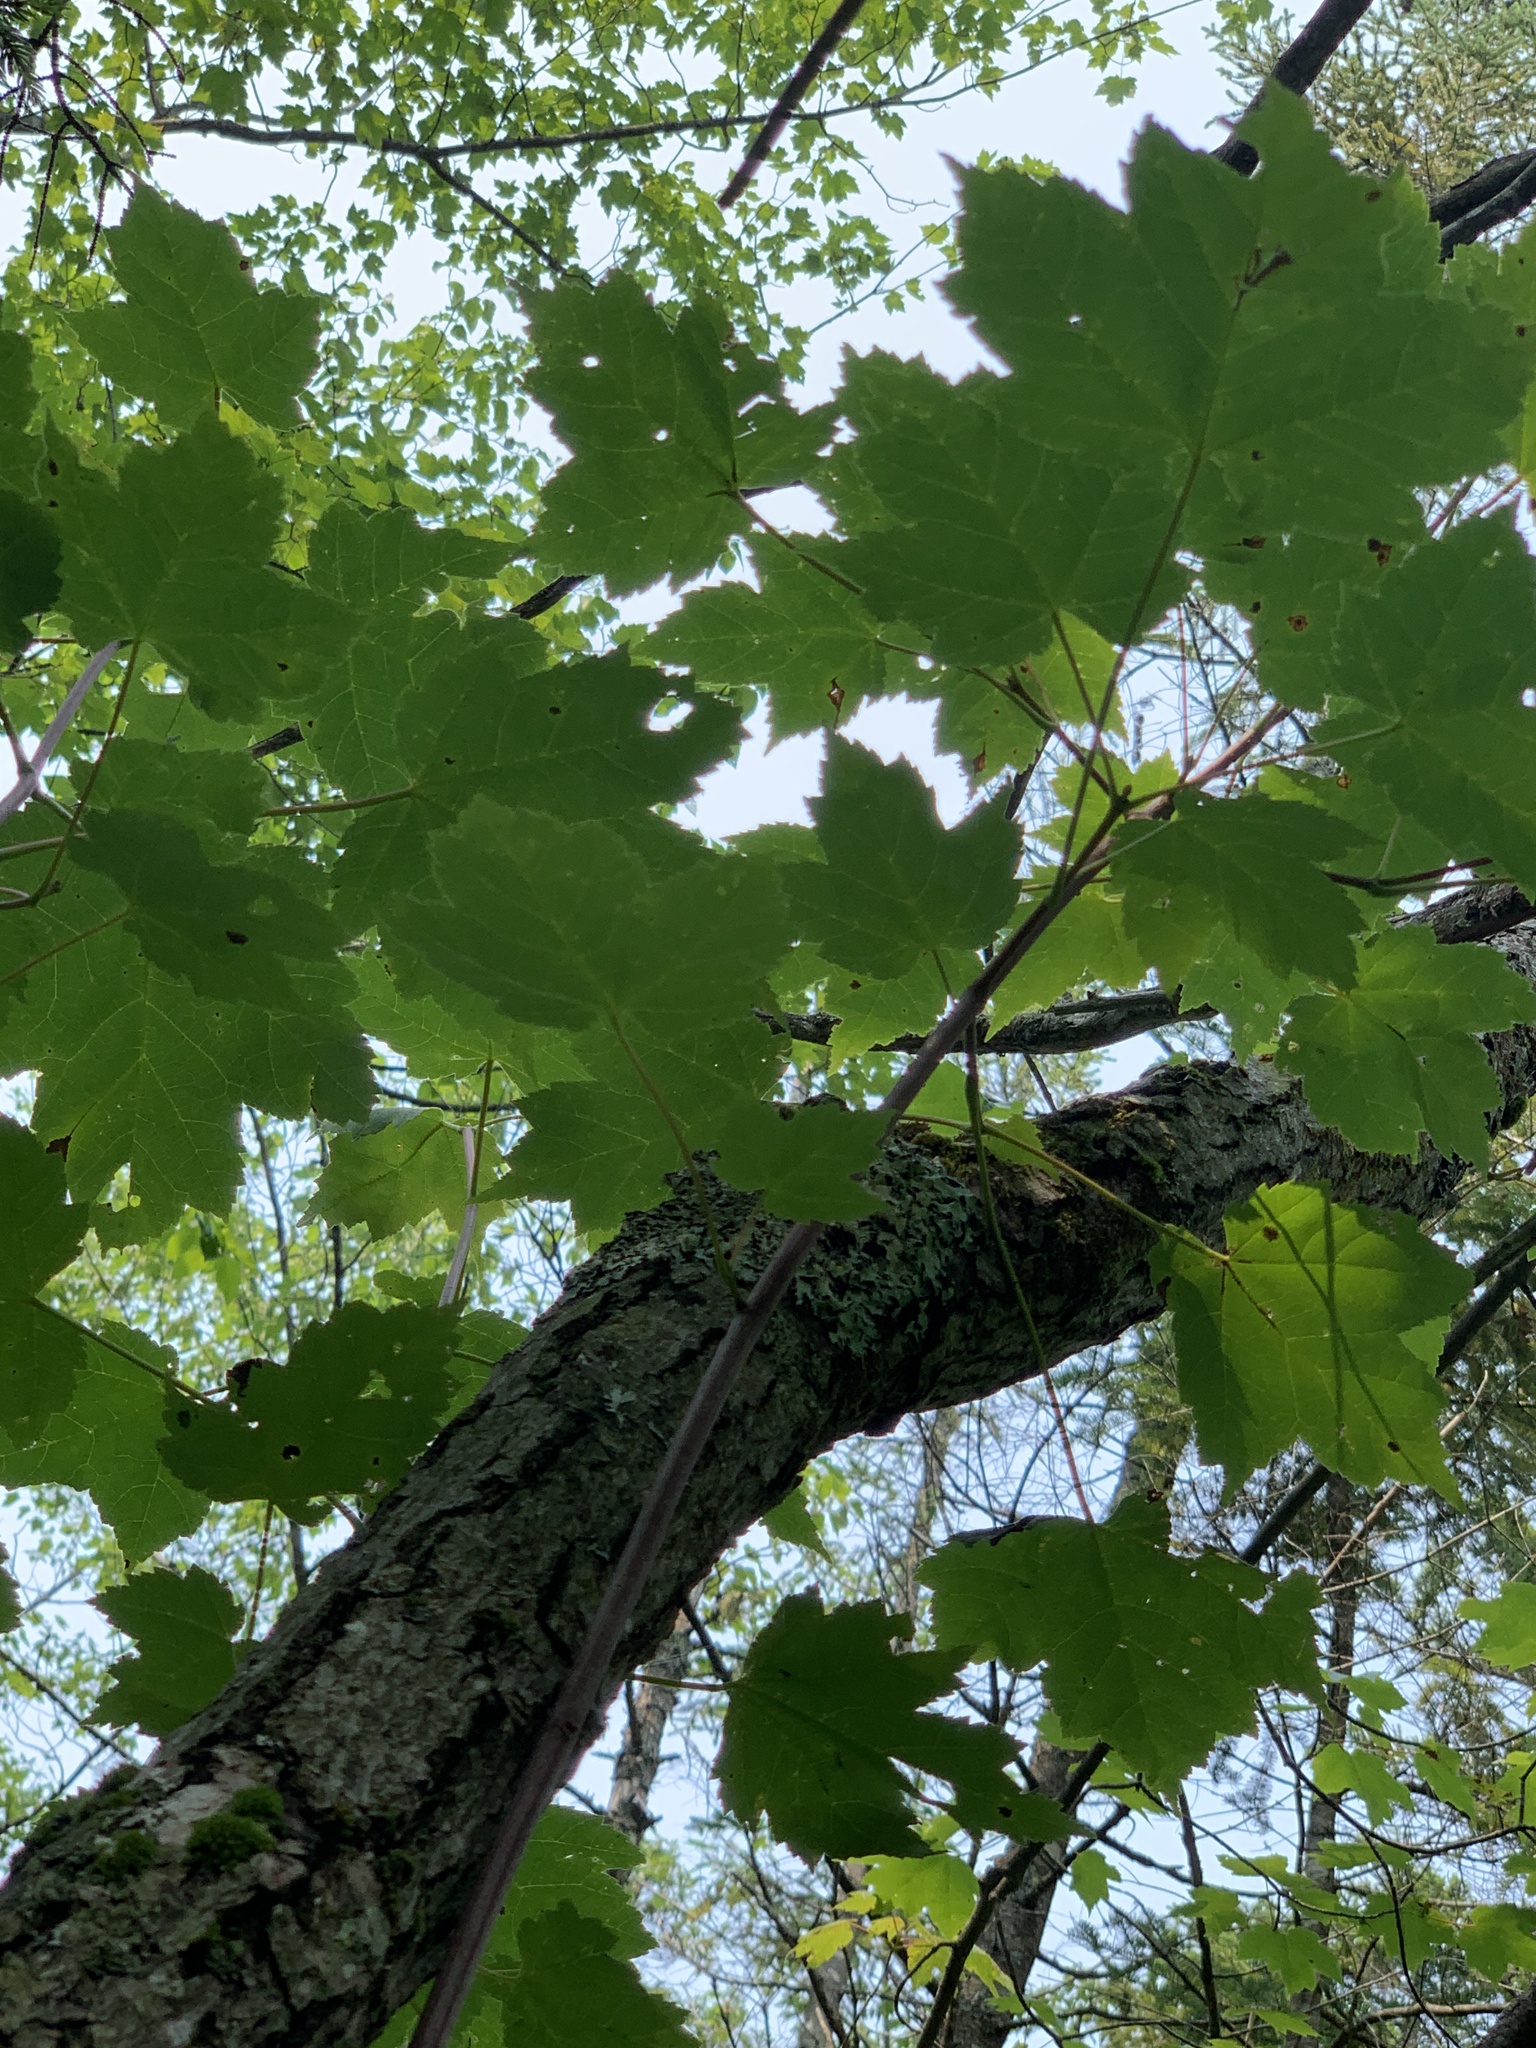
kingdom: Plantae
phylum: Tracheophyta
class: Magnoliopsida
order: Sapindales
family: Sapindaceae
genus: Acer
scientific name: Acer rubrum
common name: Red maple
